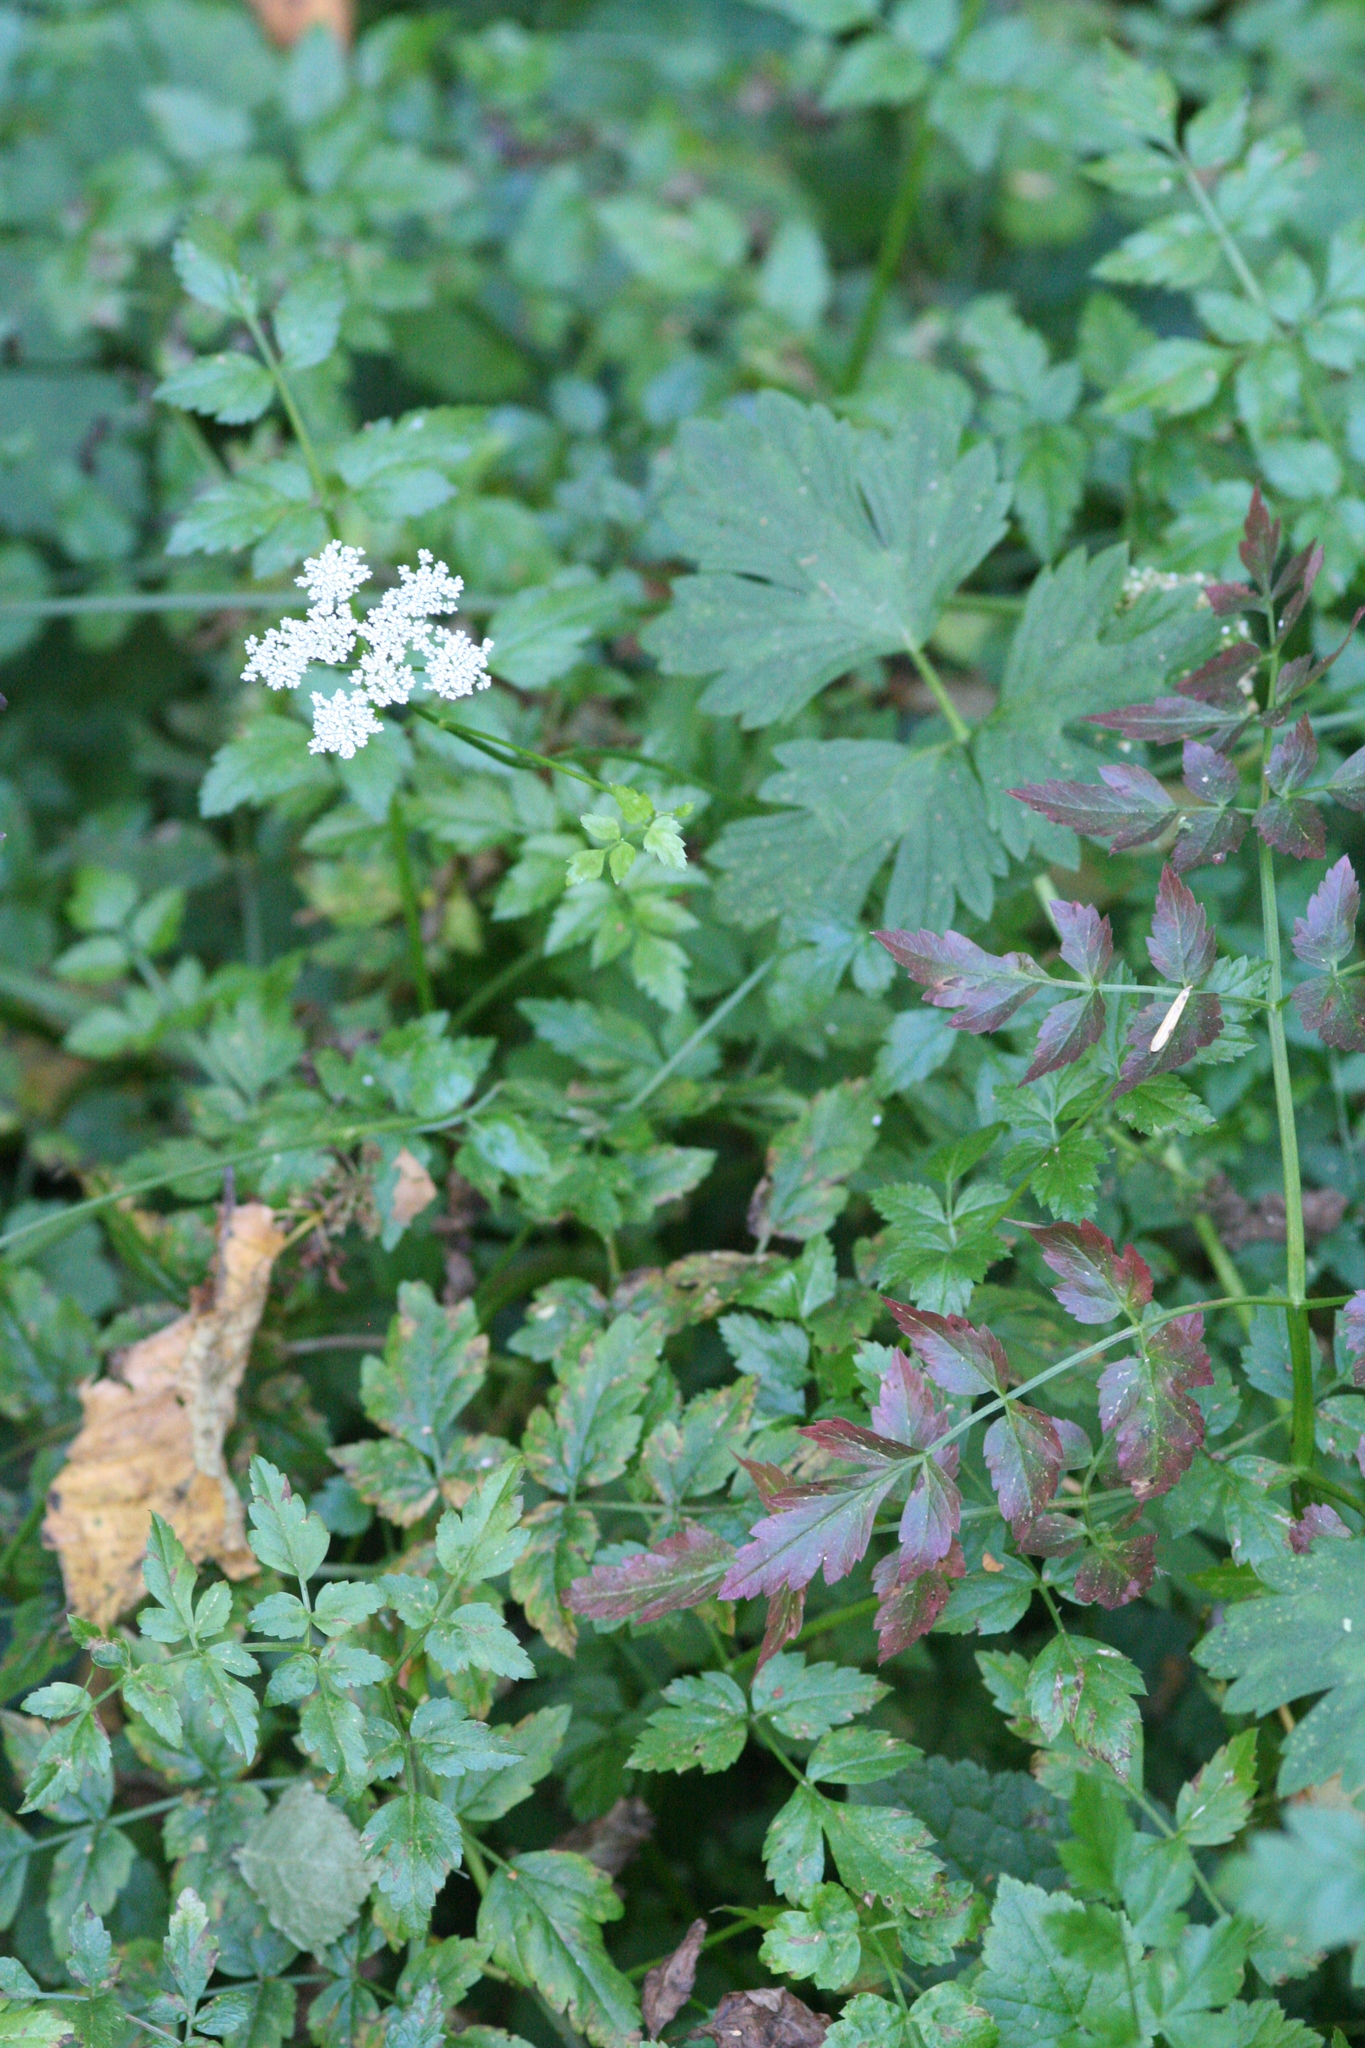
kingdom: Plantae
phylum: Tracheophyta
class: Magnoliopsida
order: Apiales
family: Apiaceae
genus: Oenanthe
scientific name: Oenanthe sarmentosa
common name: American water-parsley
